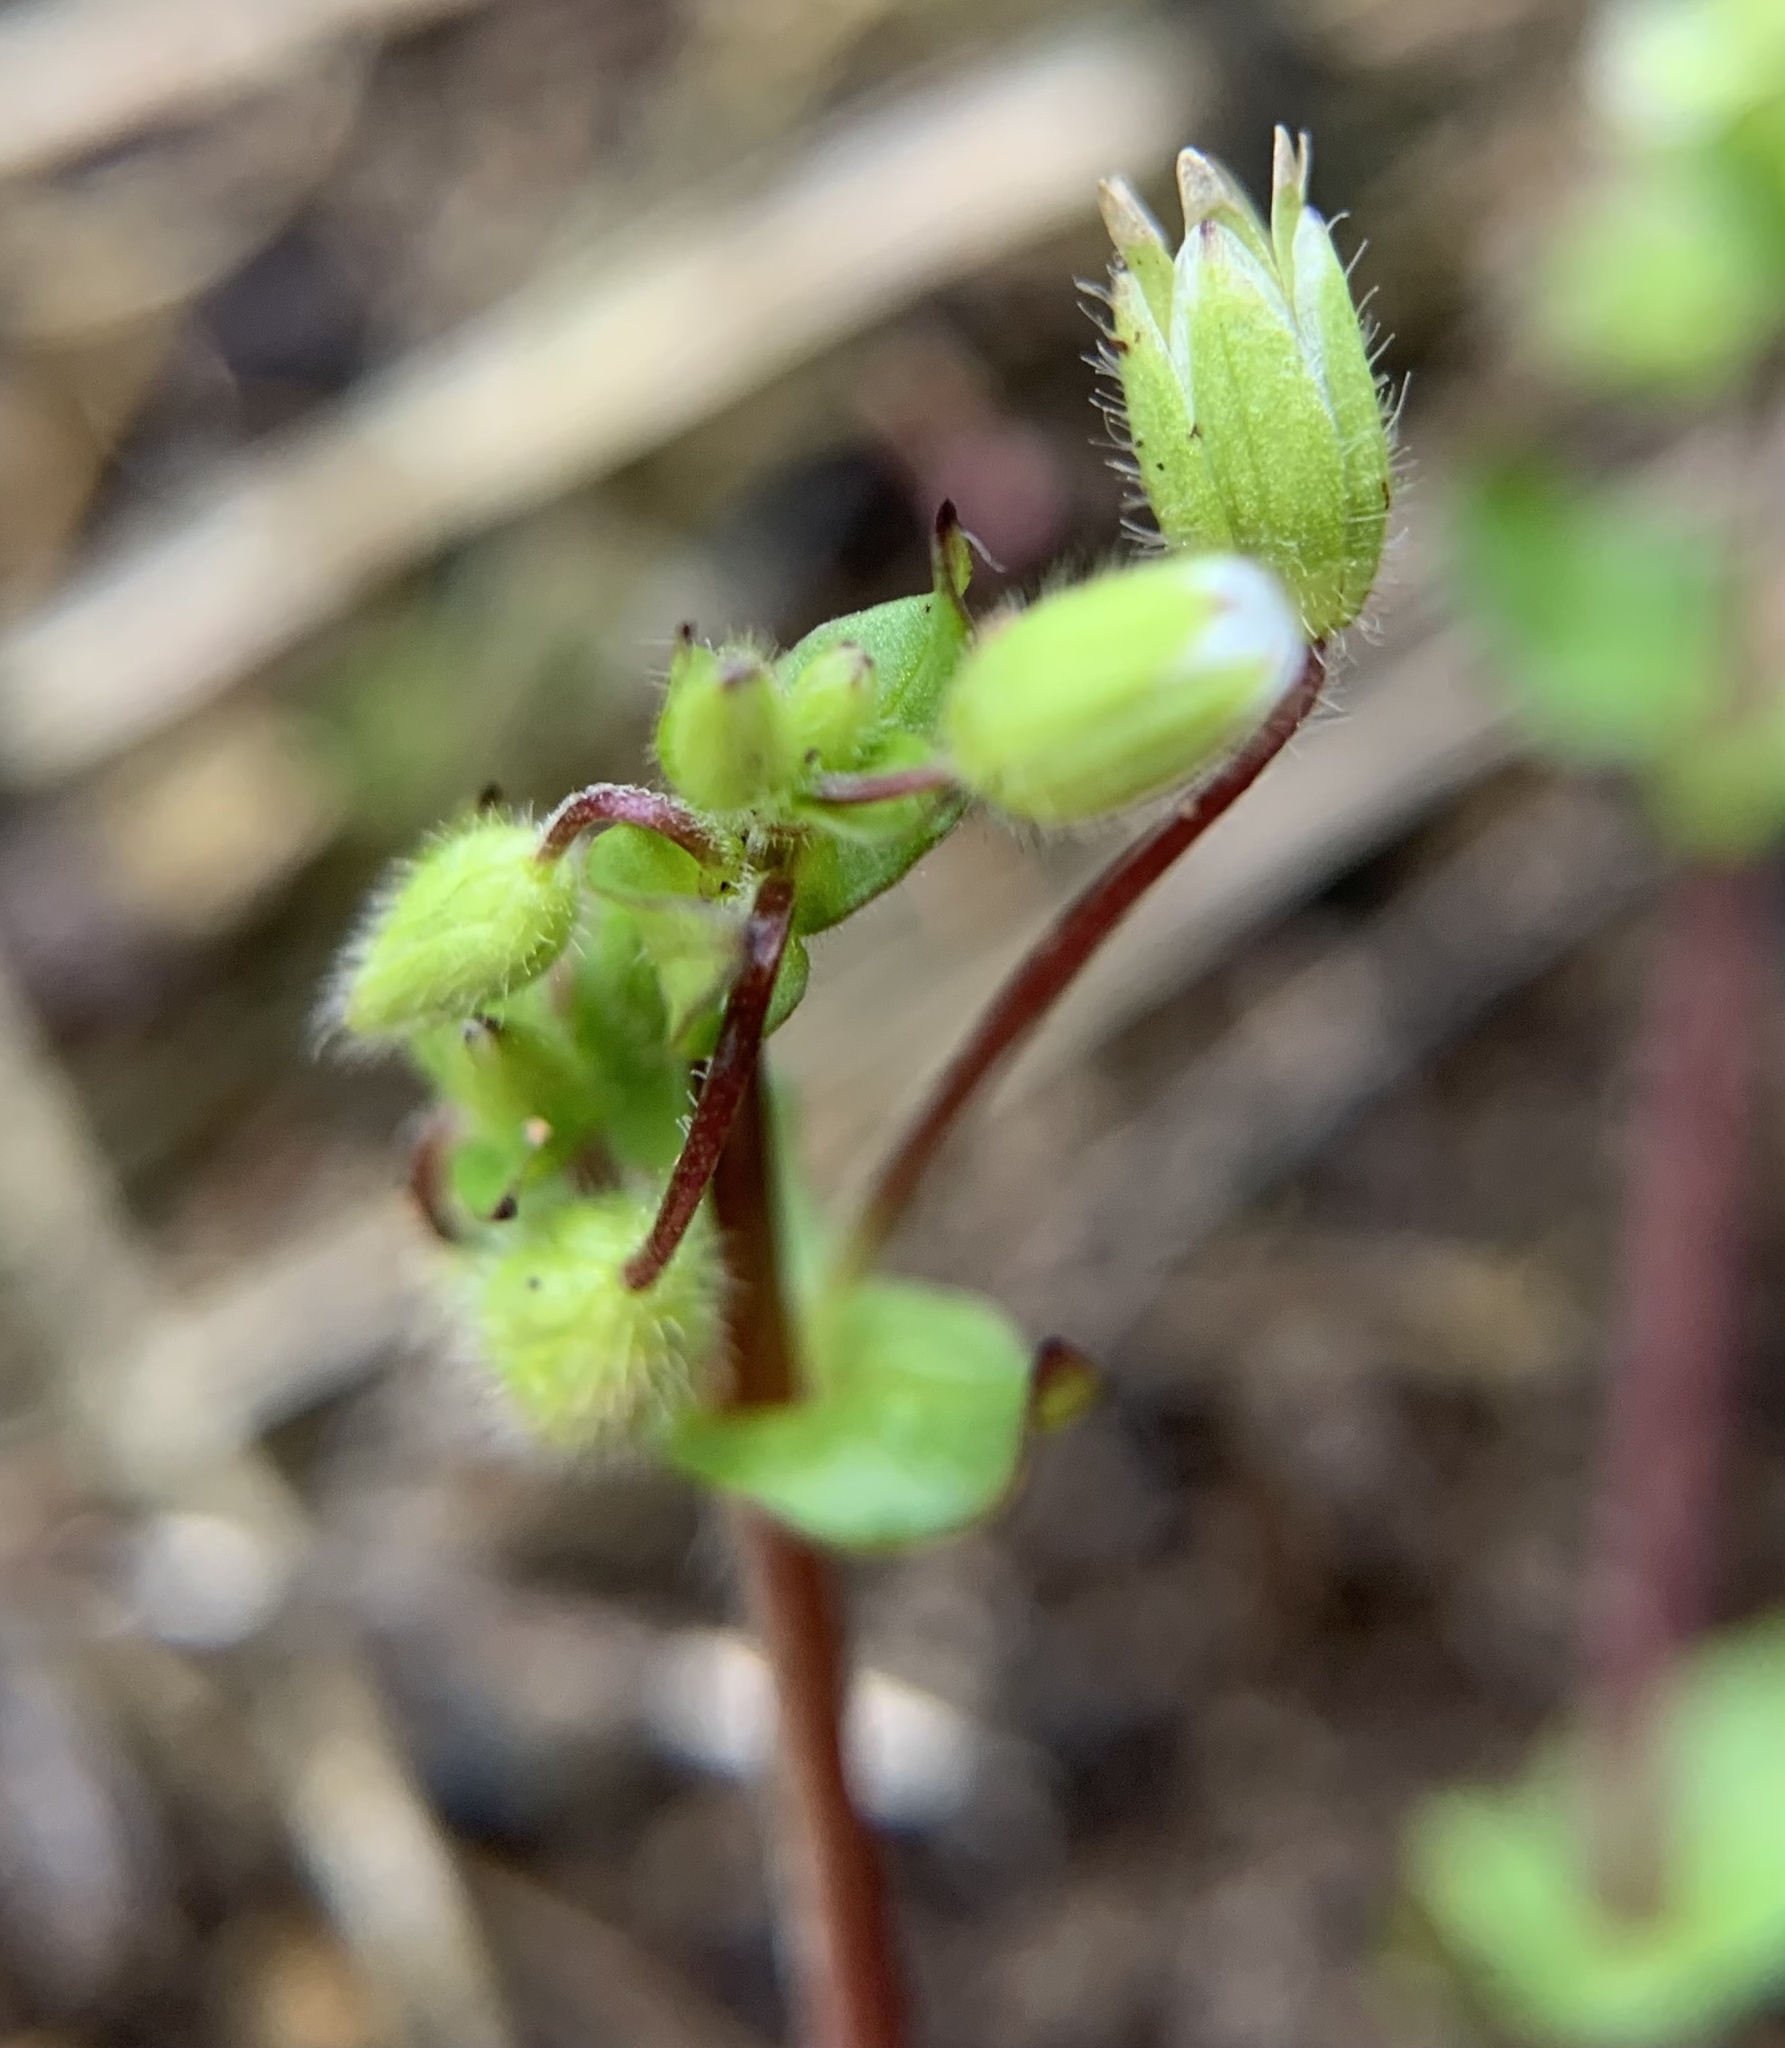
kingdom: Plantae
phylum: Tracheophyta
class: Magnoliopsida
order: Caryophyllales
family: Caryophyllaceae
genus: Stellaria
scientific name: Stellaria media
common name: Common chickweed
